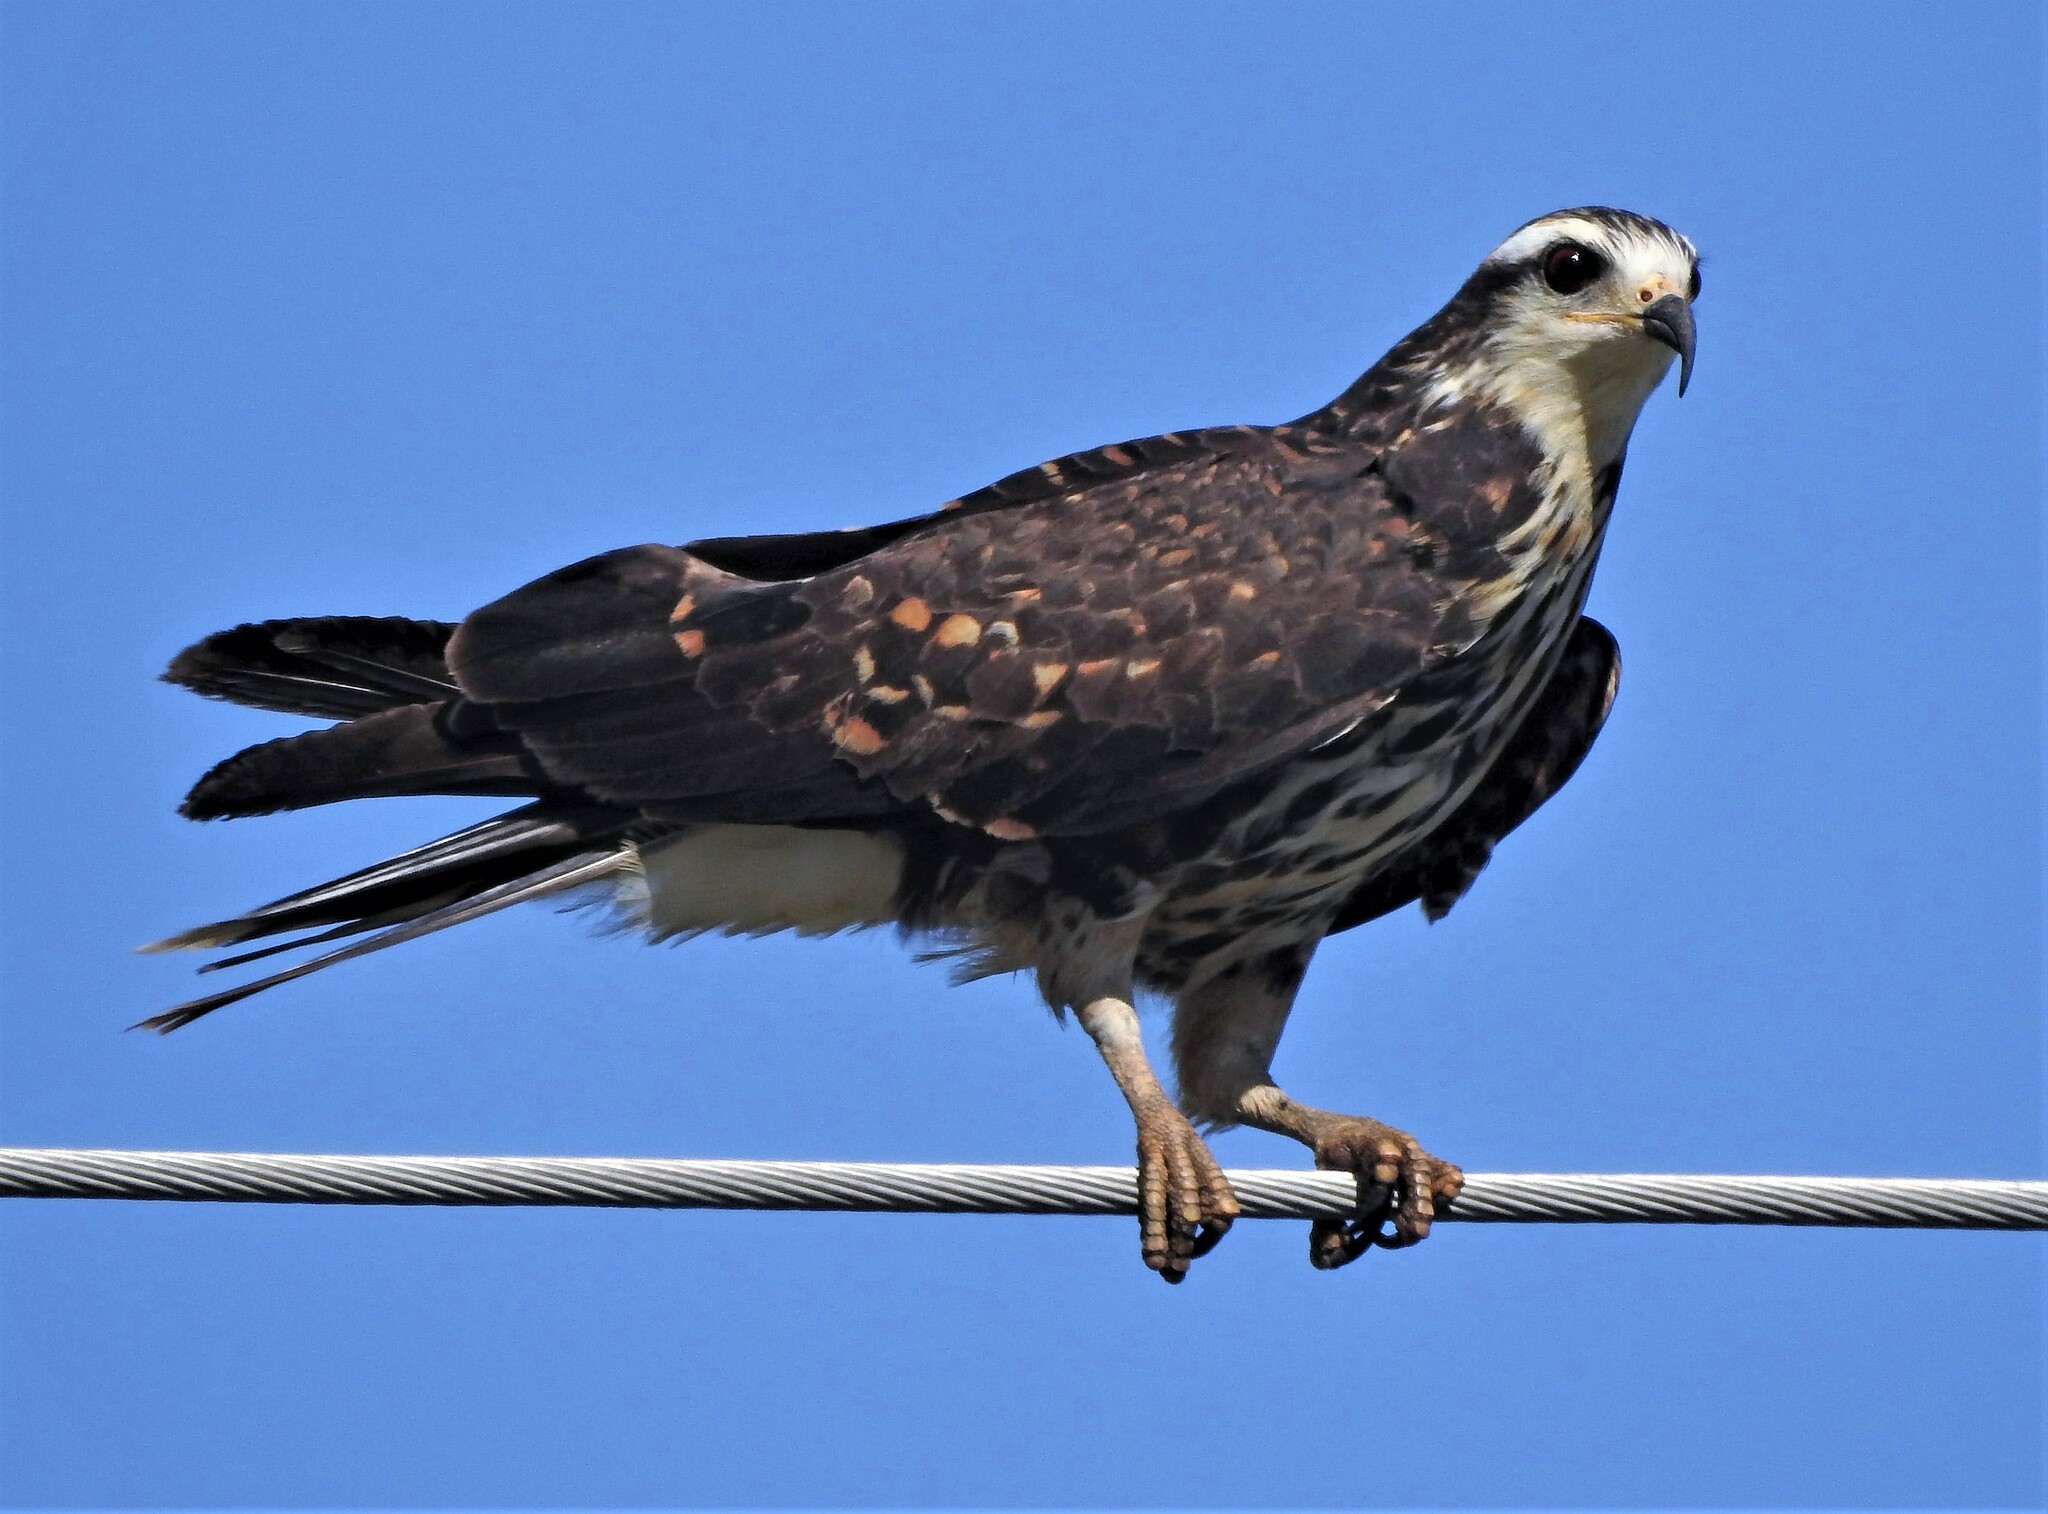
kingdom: Animalia
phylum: Chordata
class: Aves
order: Accipitriformes
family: Accipitridae
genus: Rostrhamus
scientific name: Rostrhamus sociabilis
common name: Snail kite
